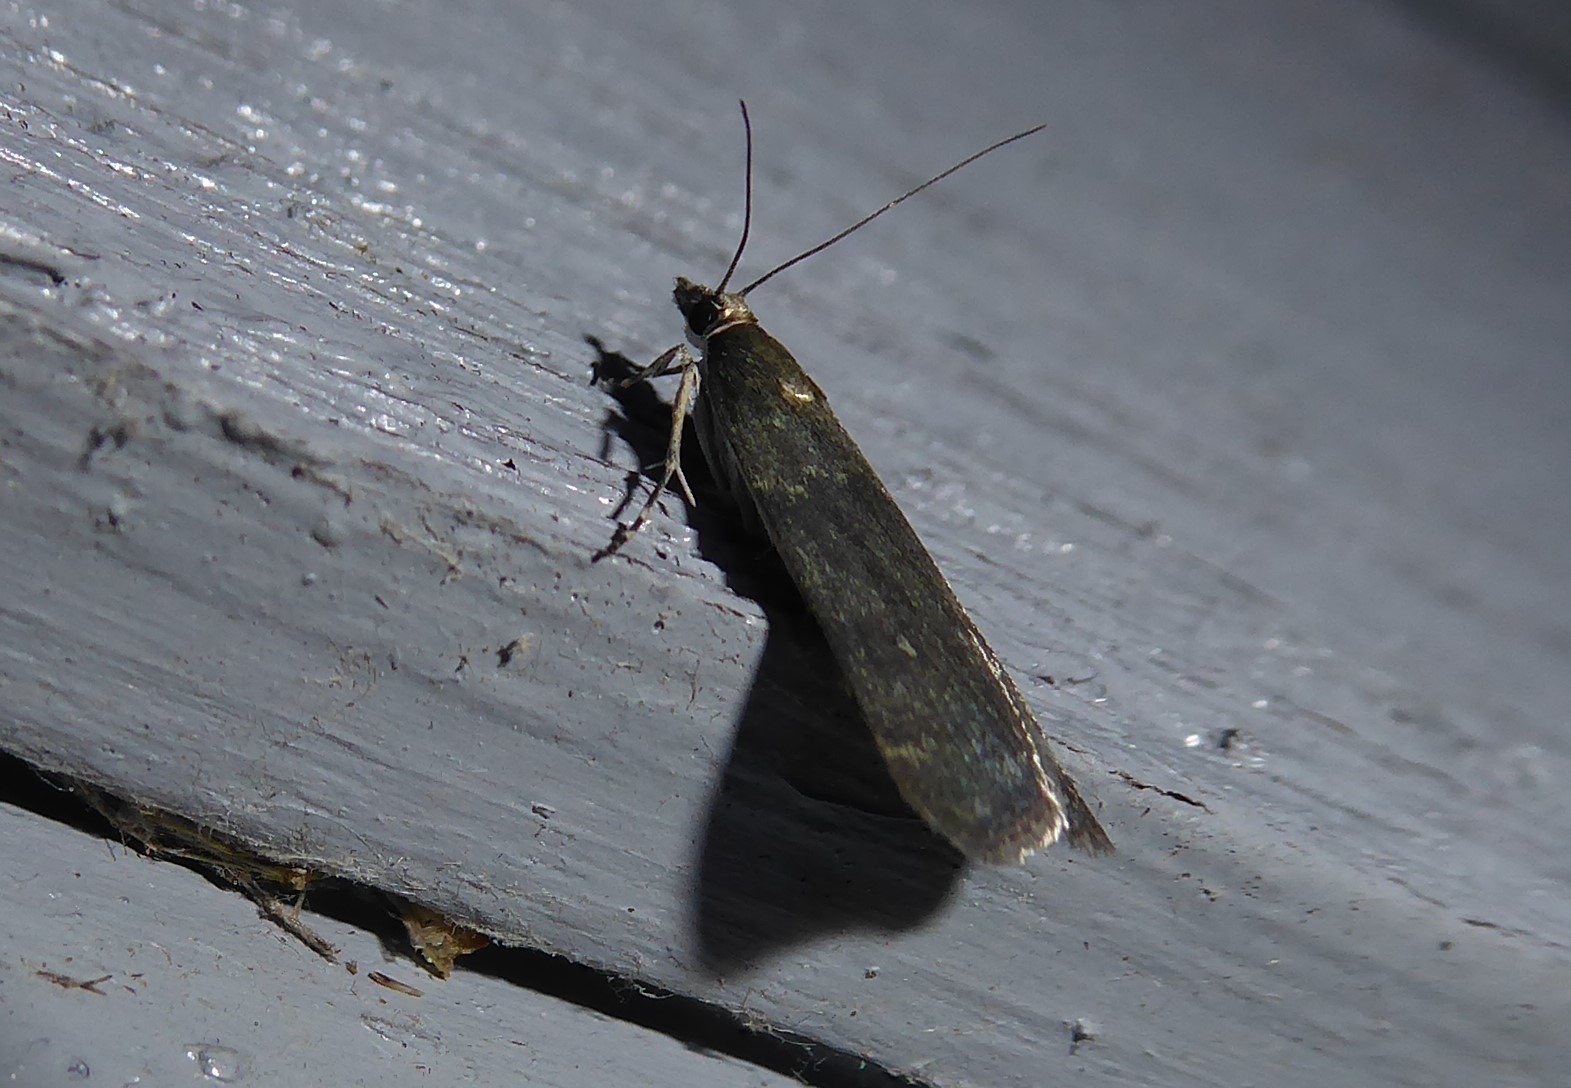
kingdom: Animalia
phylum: Arthropoda
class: Insecta
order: Lepidoptera
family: Crambidae
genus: Eudonia
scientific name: Eudonia cataxesta
